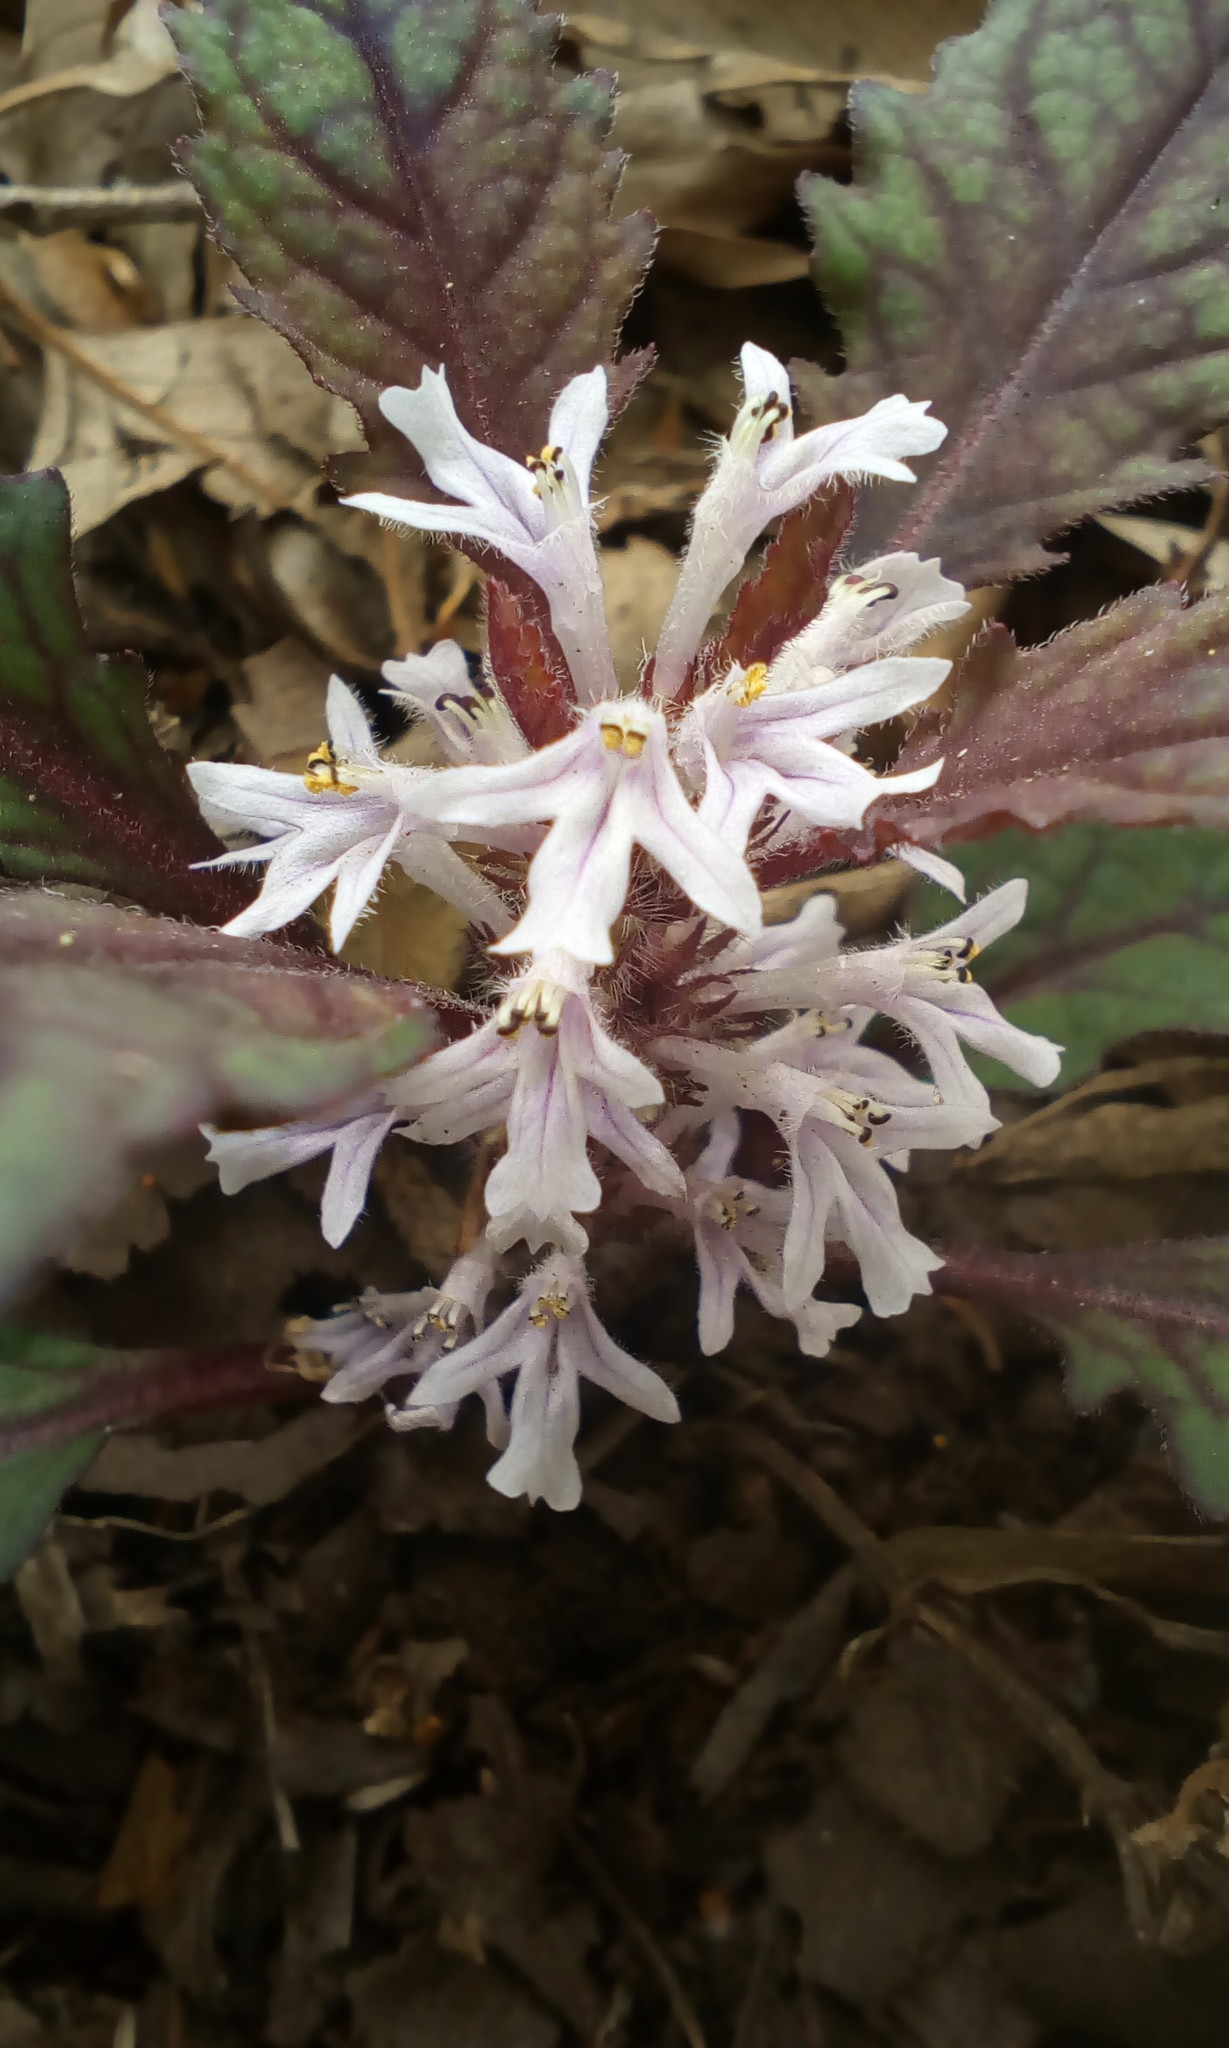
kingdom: Plantae
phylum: Tracheophyta
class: Magnoliopsida
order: Lamiales
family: Lamiaceae
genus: Ajuga
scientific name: Ajuga tsukubana
